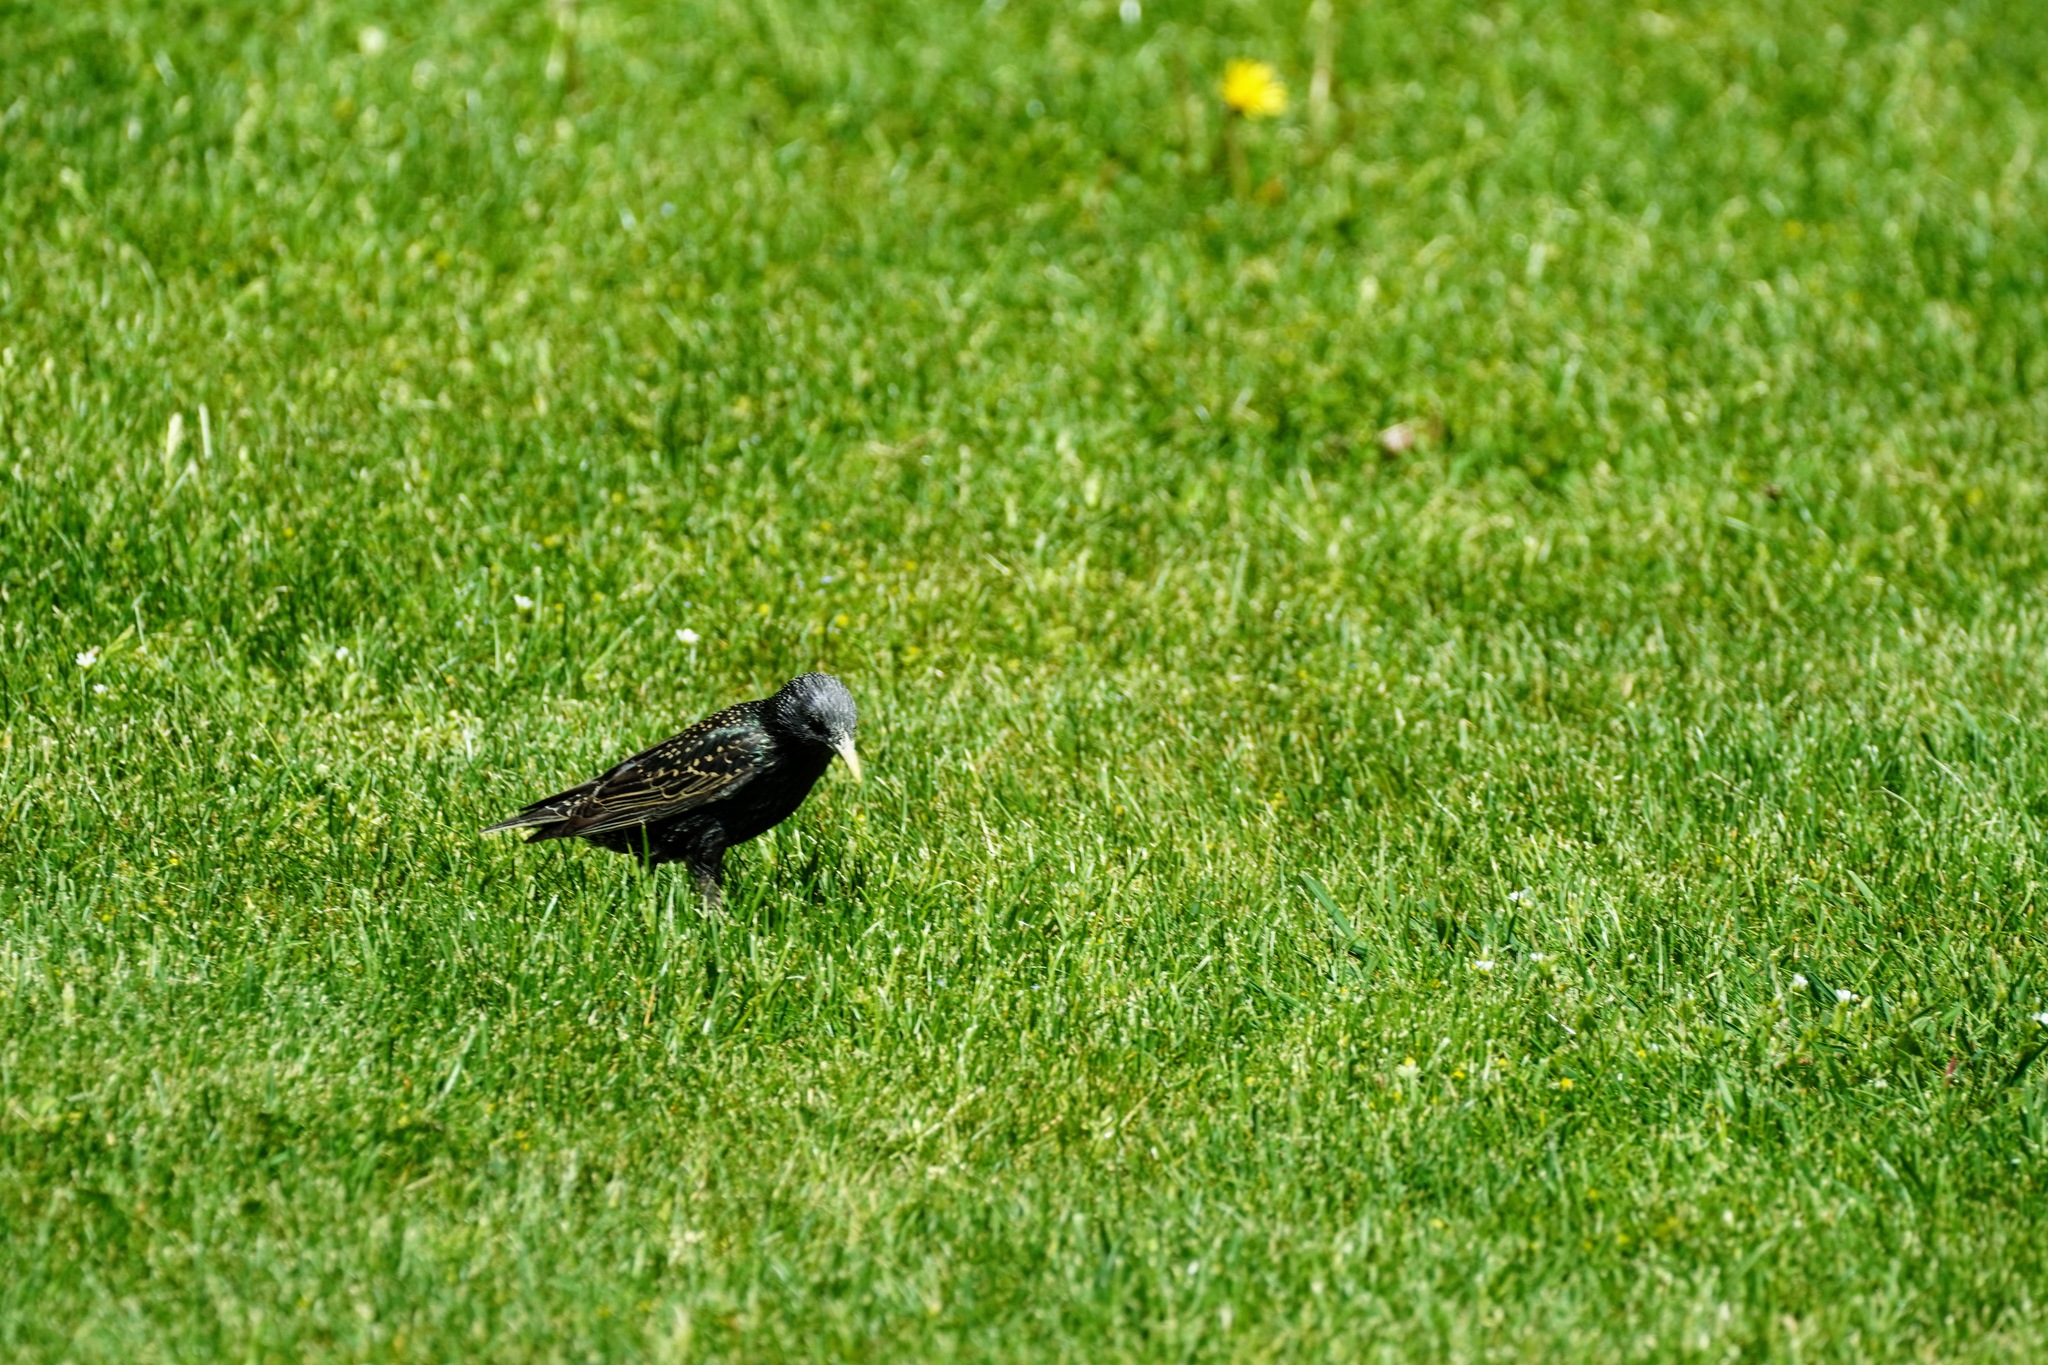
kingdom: Animalia
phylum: Chordata
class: Aves
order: Passeriformes
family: Sturnidae
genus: Sturnus
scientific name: Sturnus vulgaris
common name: Common starling
